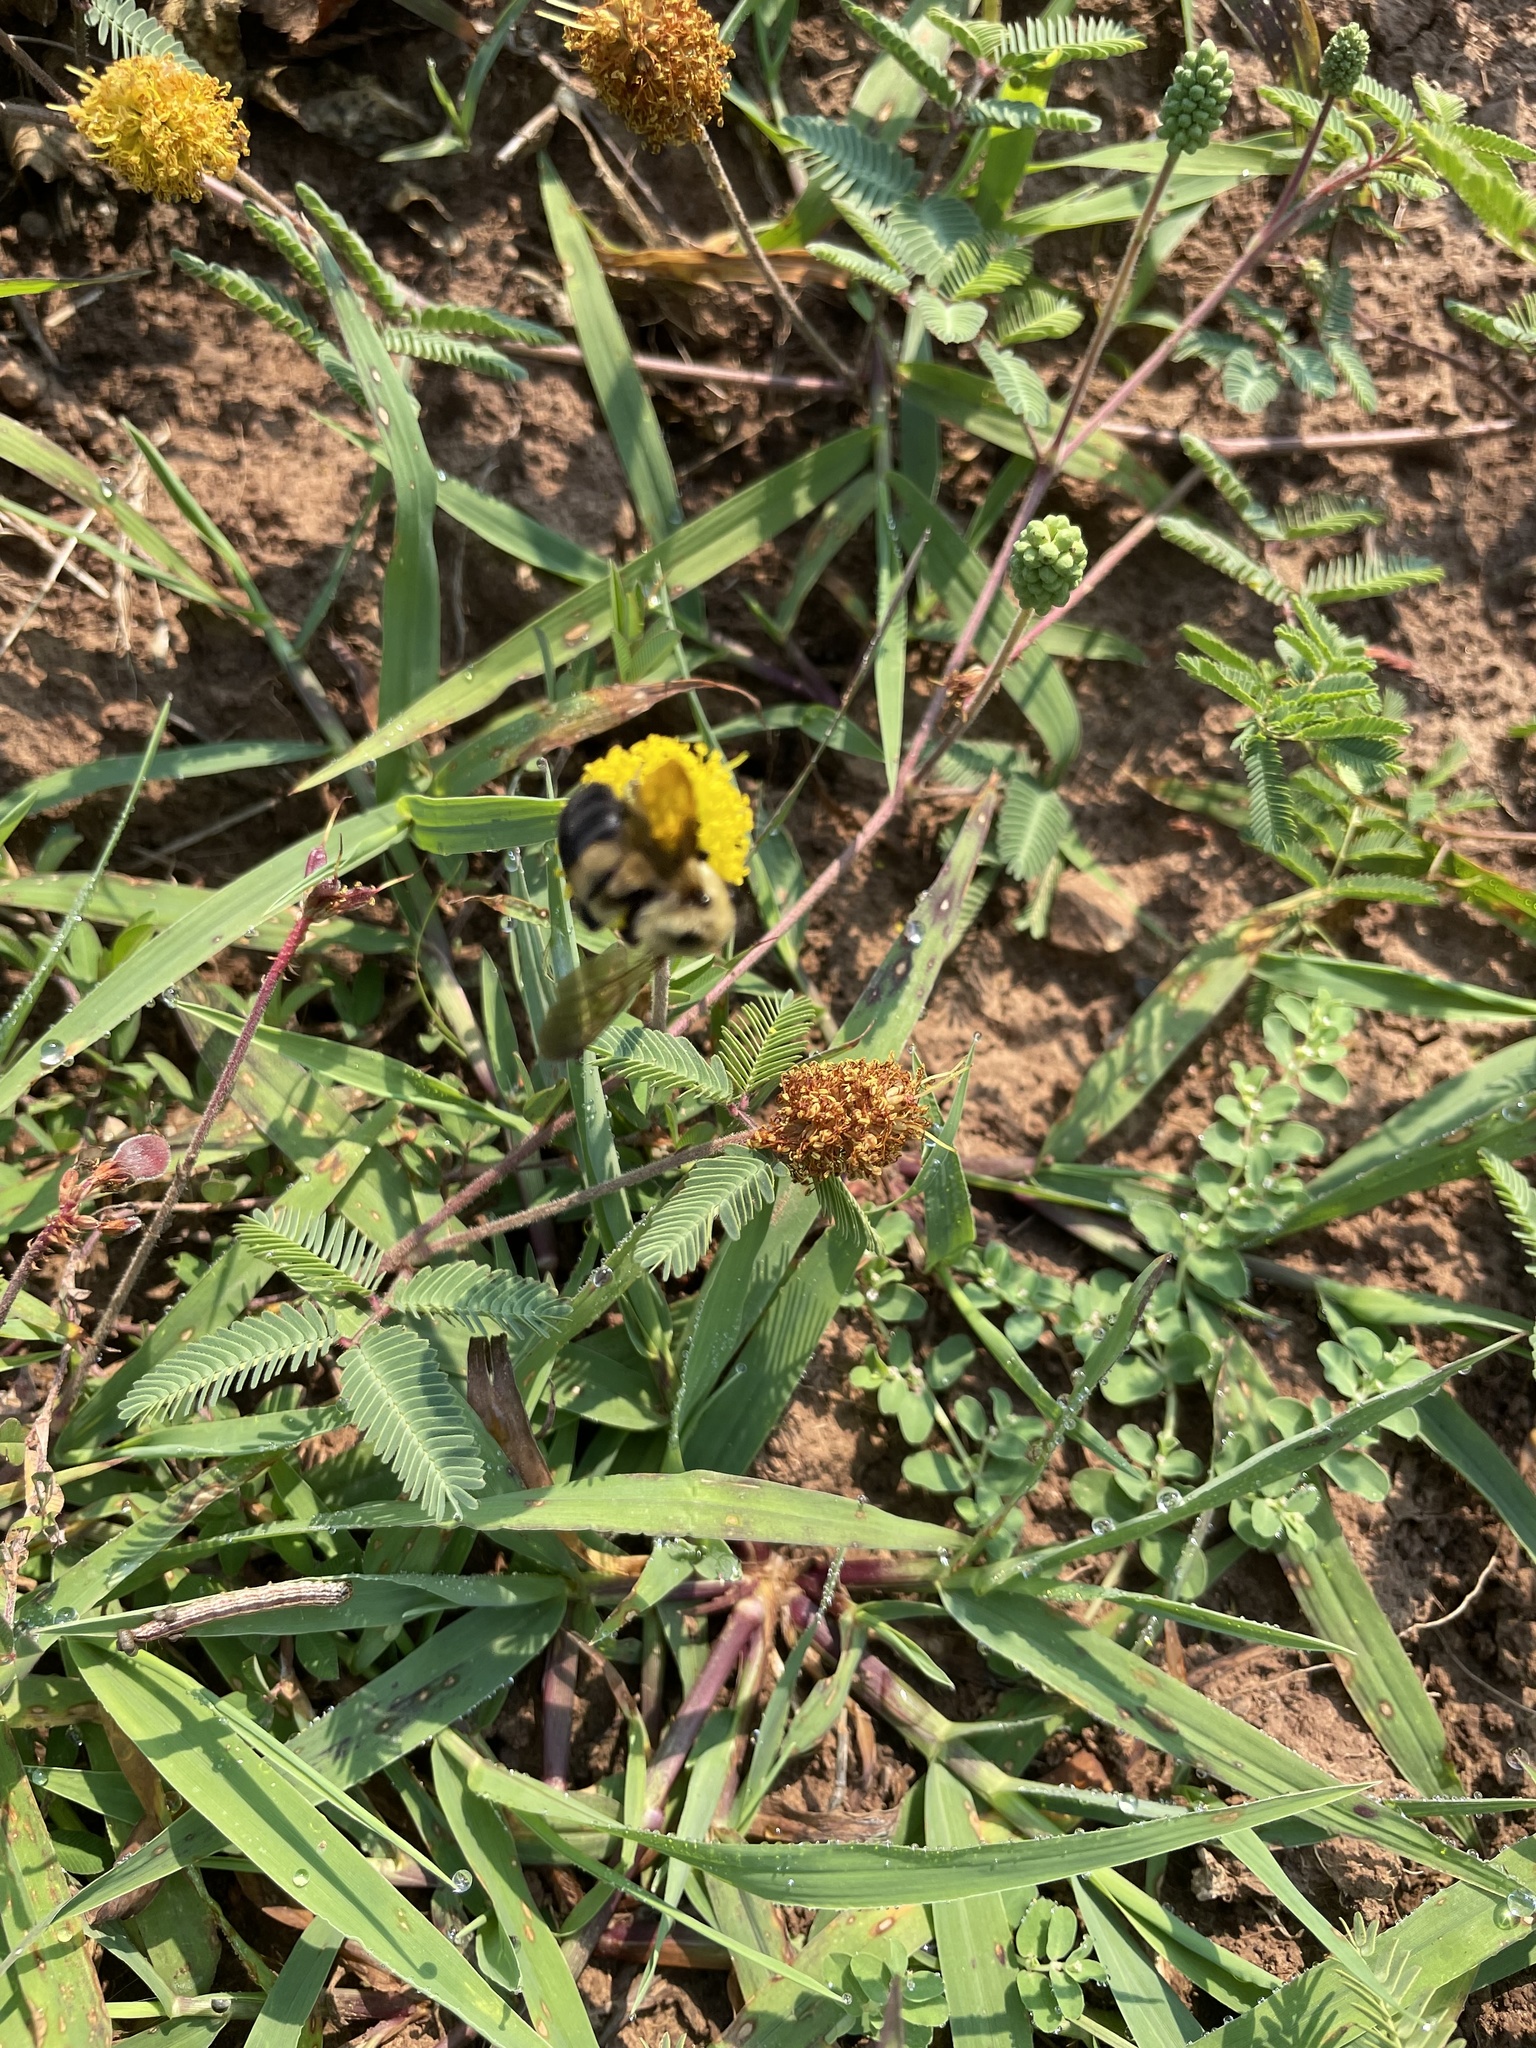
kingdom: Animalia
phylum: Arthropoda
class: Insecta
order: Hymenoptera
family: Apidae
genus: Bombus
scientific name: Bombus griseocollis
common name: Brown-belted bumble bee
